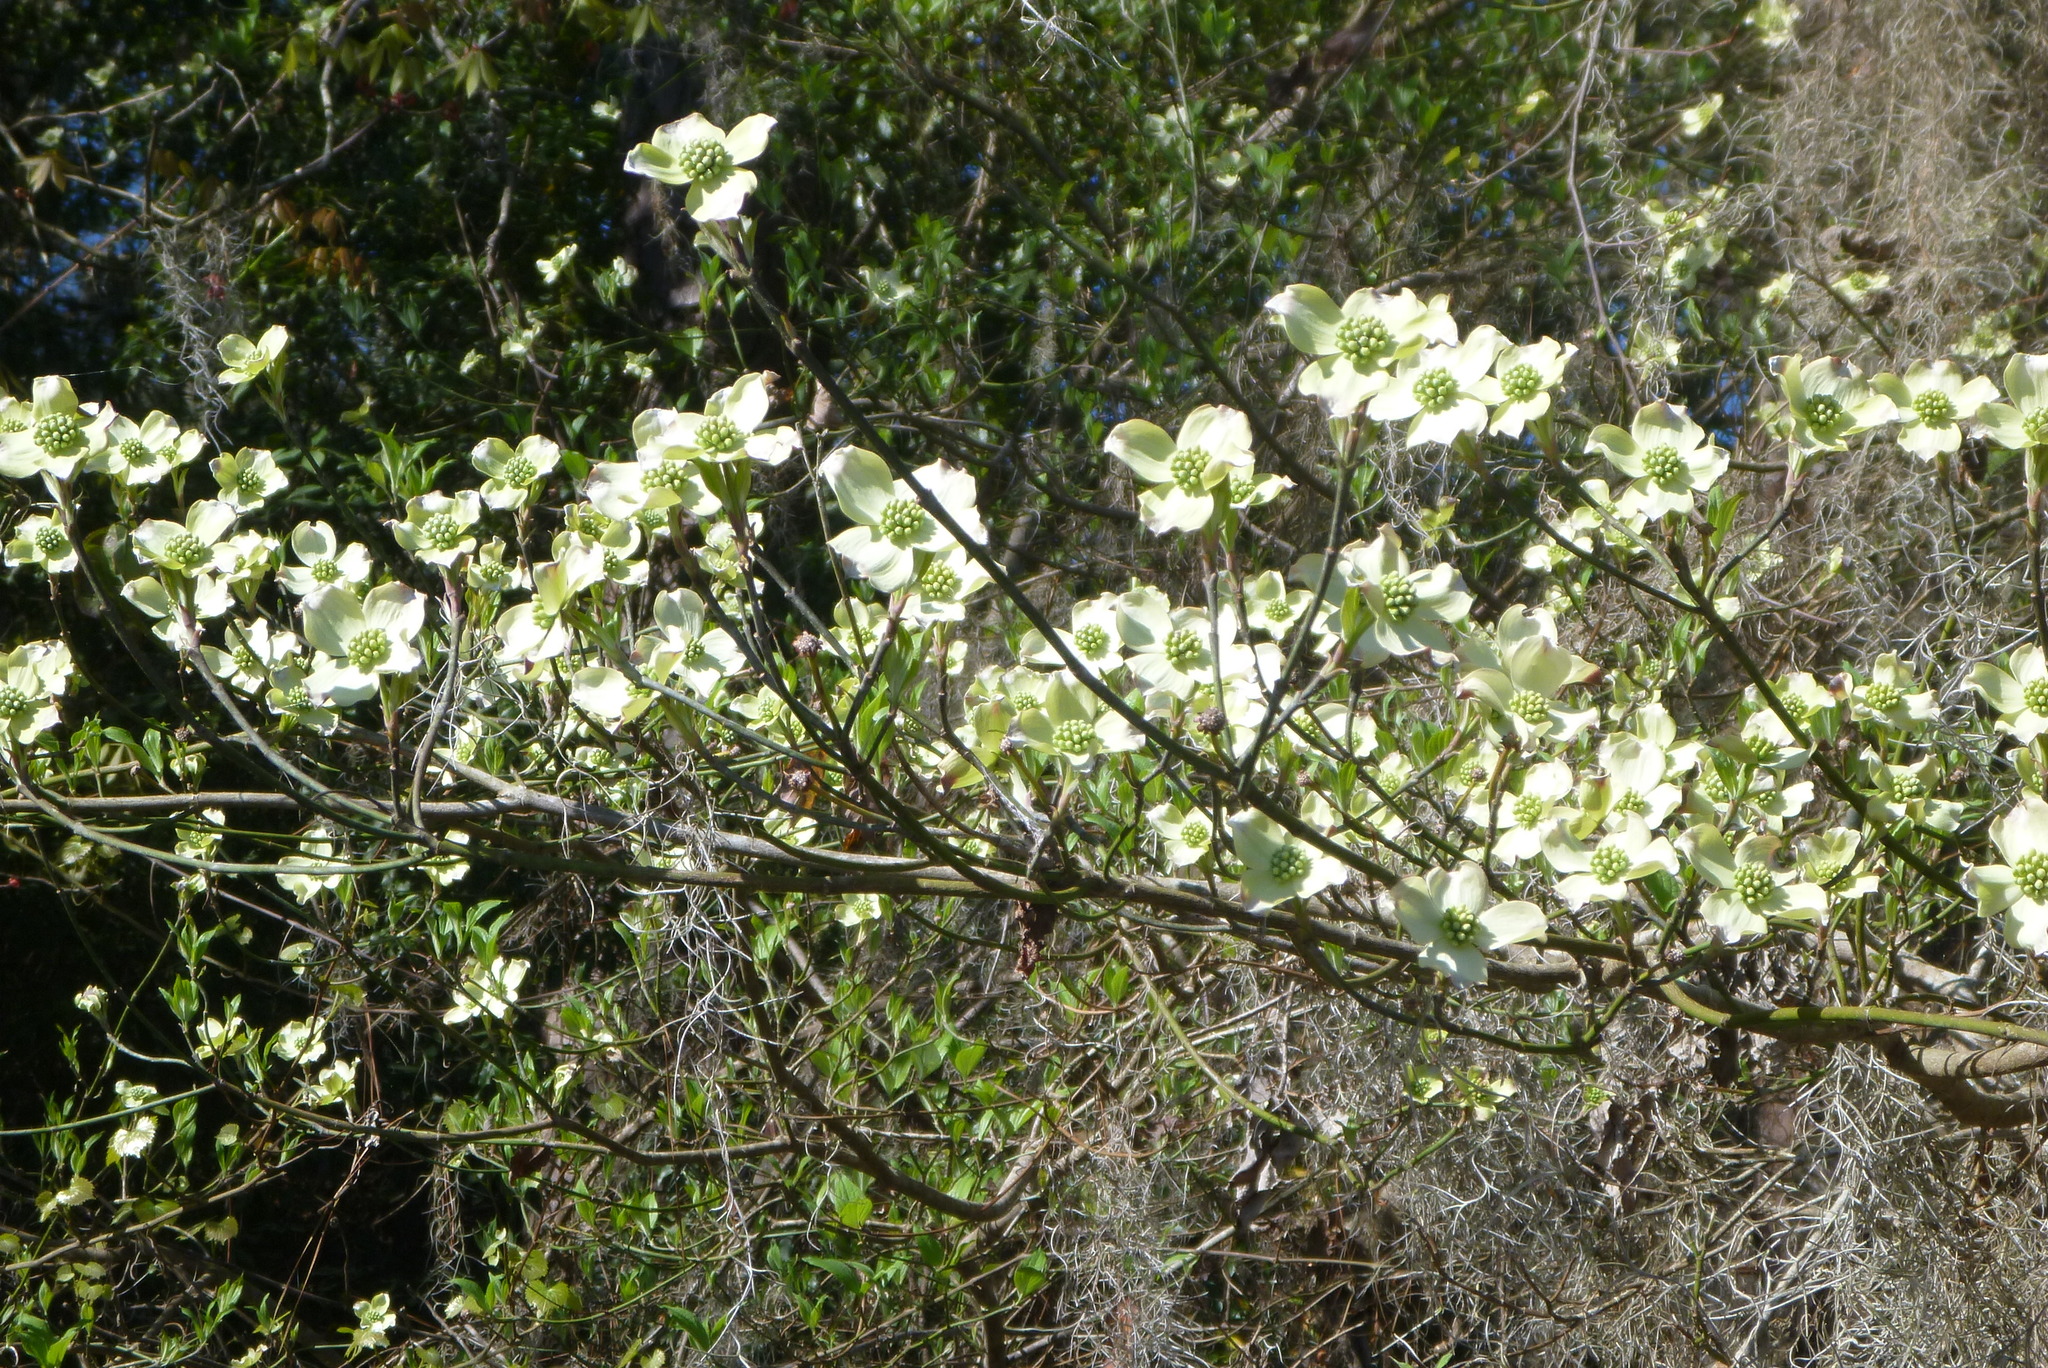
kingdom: Plantae
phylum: Tracheophyta
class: Magnoliopsida
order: Cornales
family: Cornaceae
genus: Cornus
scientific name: Cornus florida
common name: Flowering dogwood
